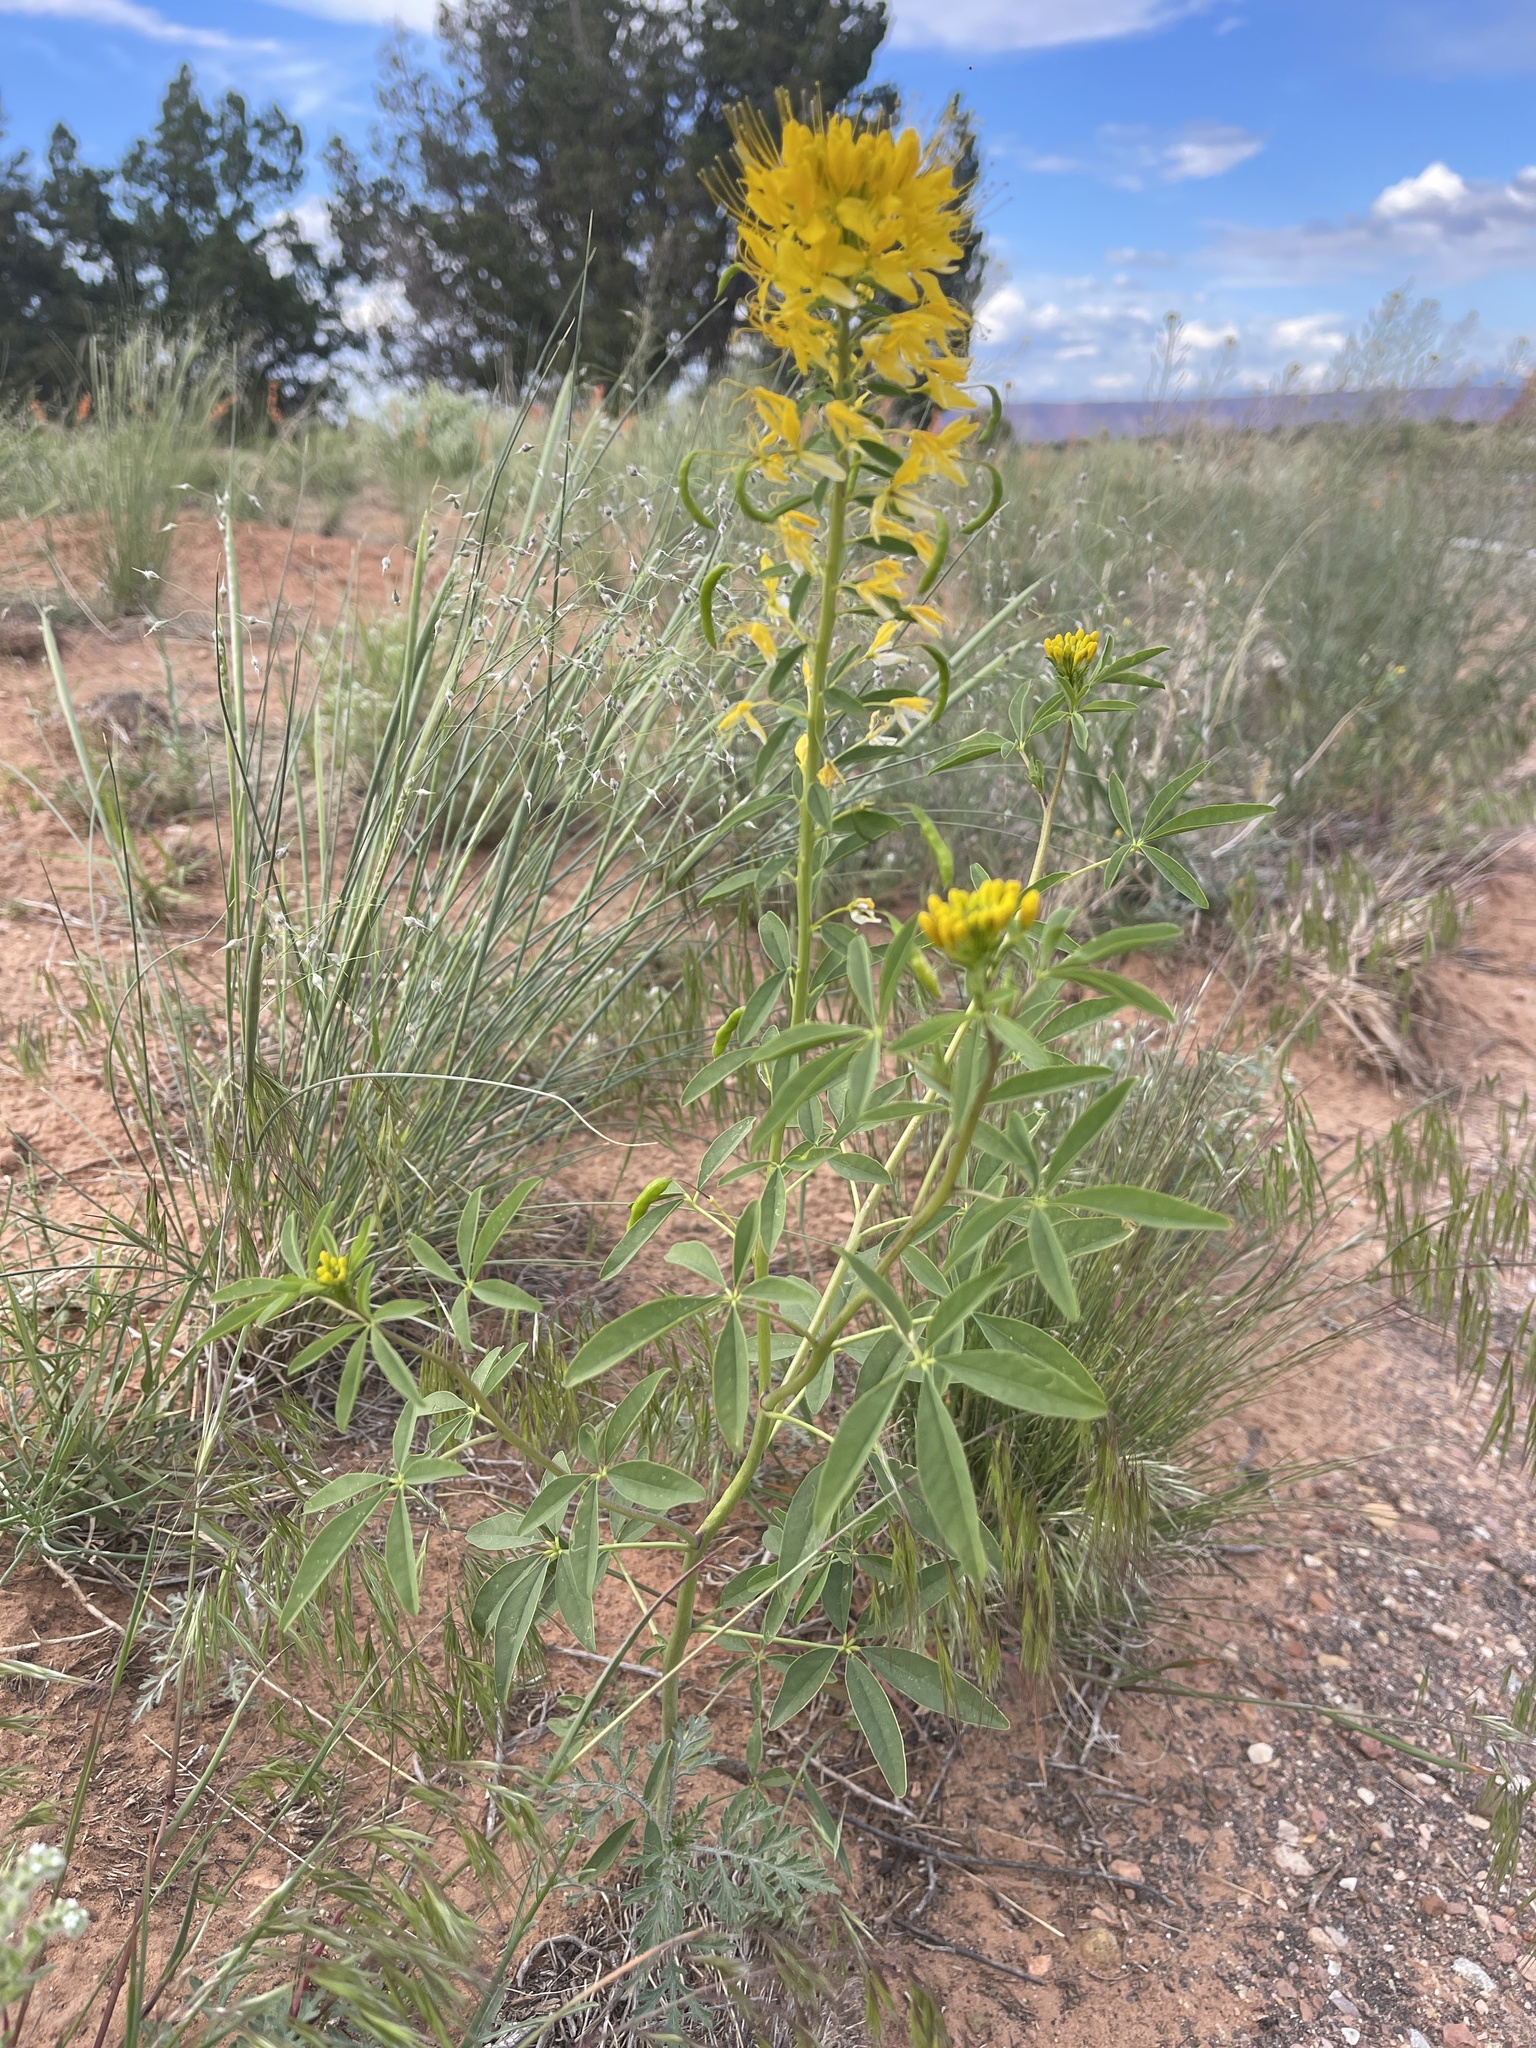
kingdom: Plantae
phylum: Tracheophyta
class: Magnoliopsida
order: Brassicales
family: Cleomaceae
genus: Cleomella
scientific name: Cleomella lutea
